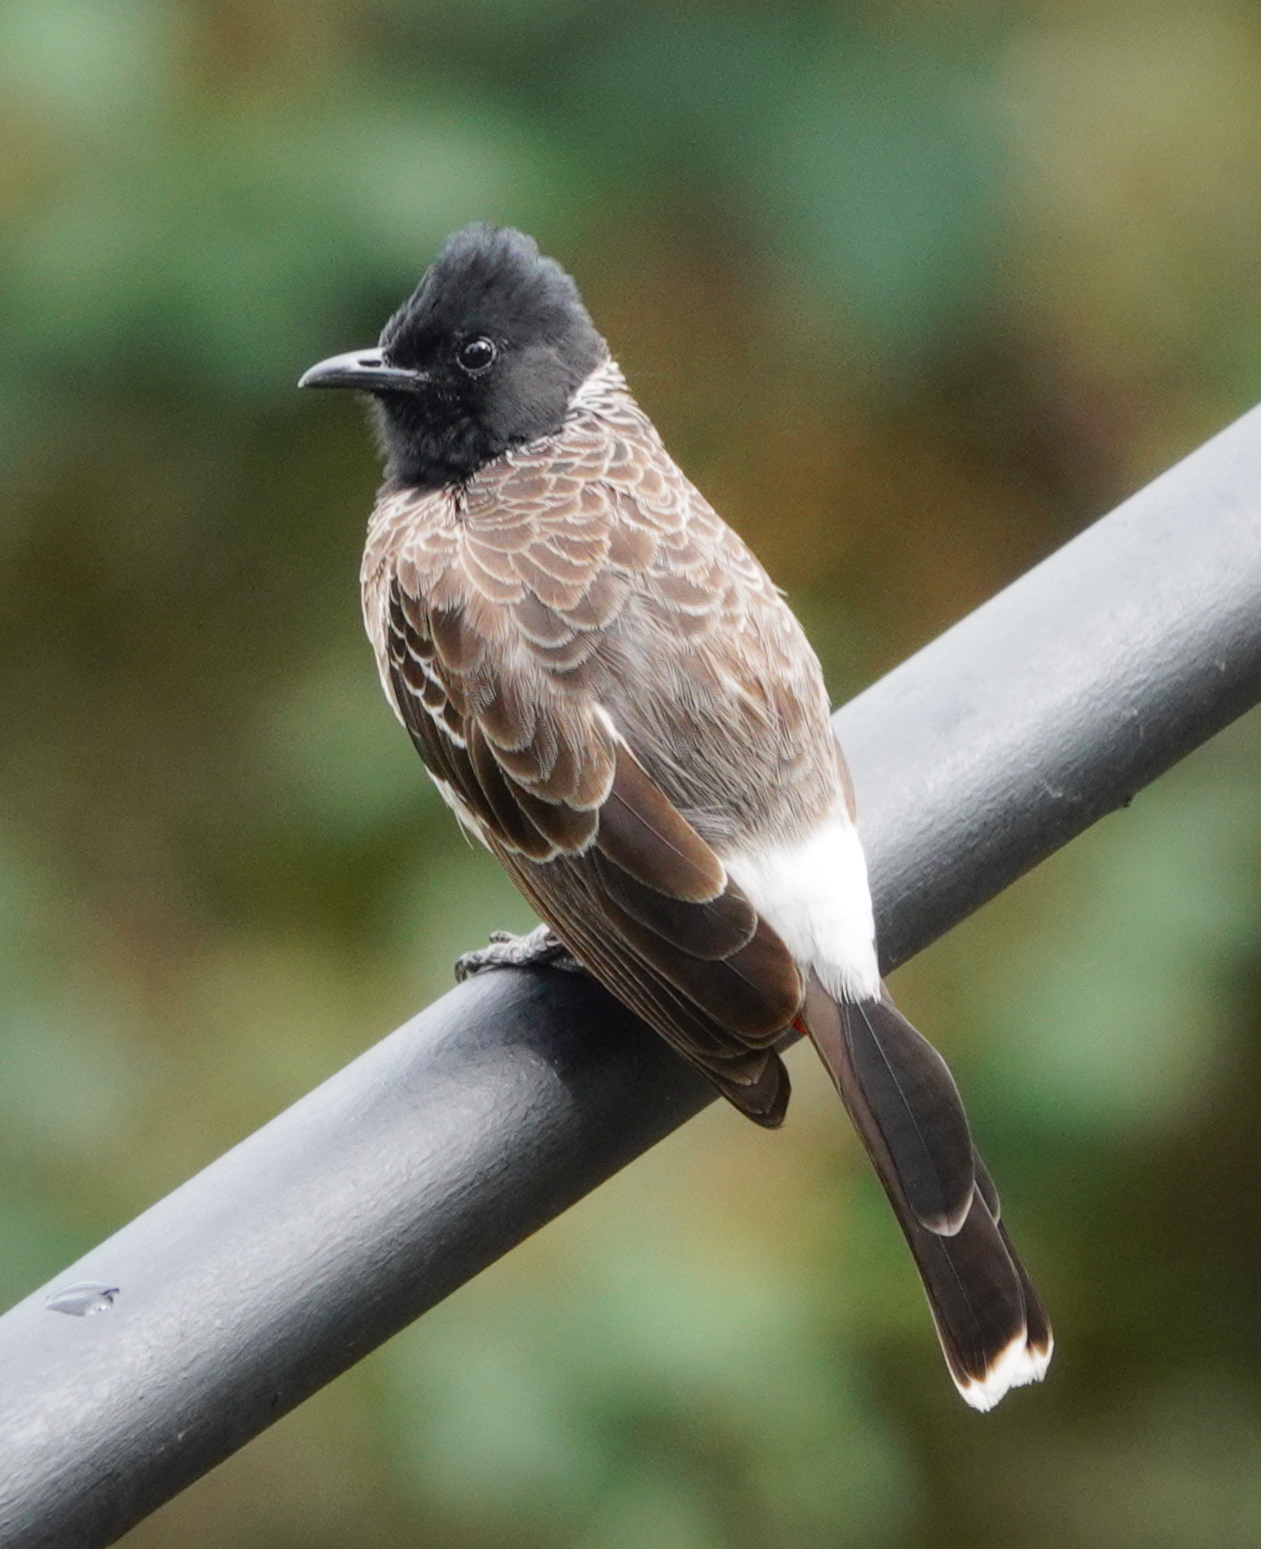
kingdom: Animalia
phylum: Chordata
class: Aves
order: Passeriformes
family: Pycnonotidae
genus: Pycnonotus
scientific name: Pycnonotus cafer
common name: Red-vented bulbul
